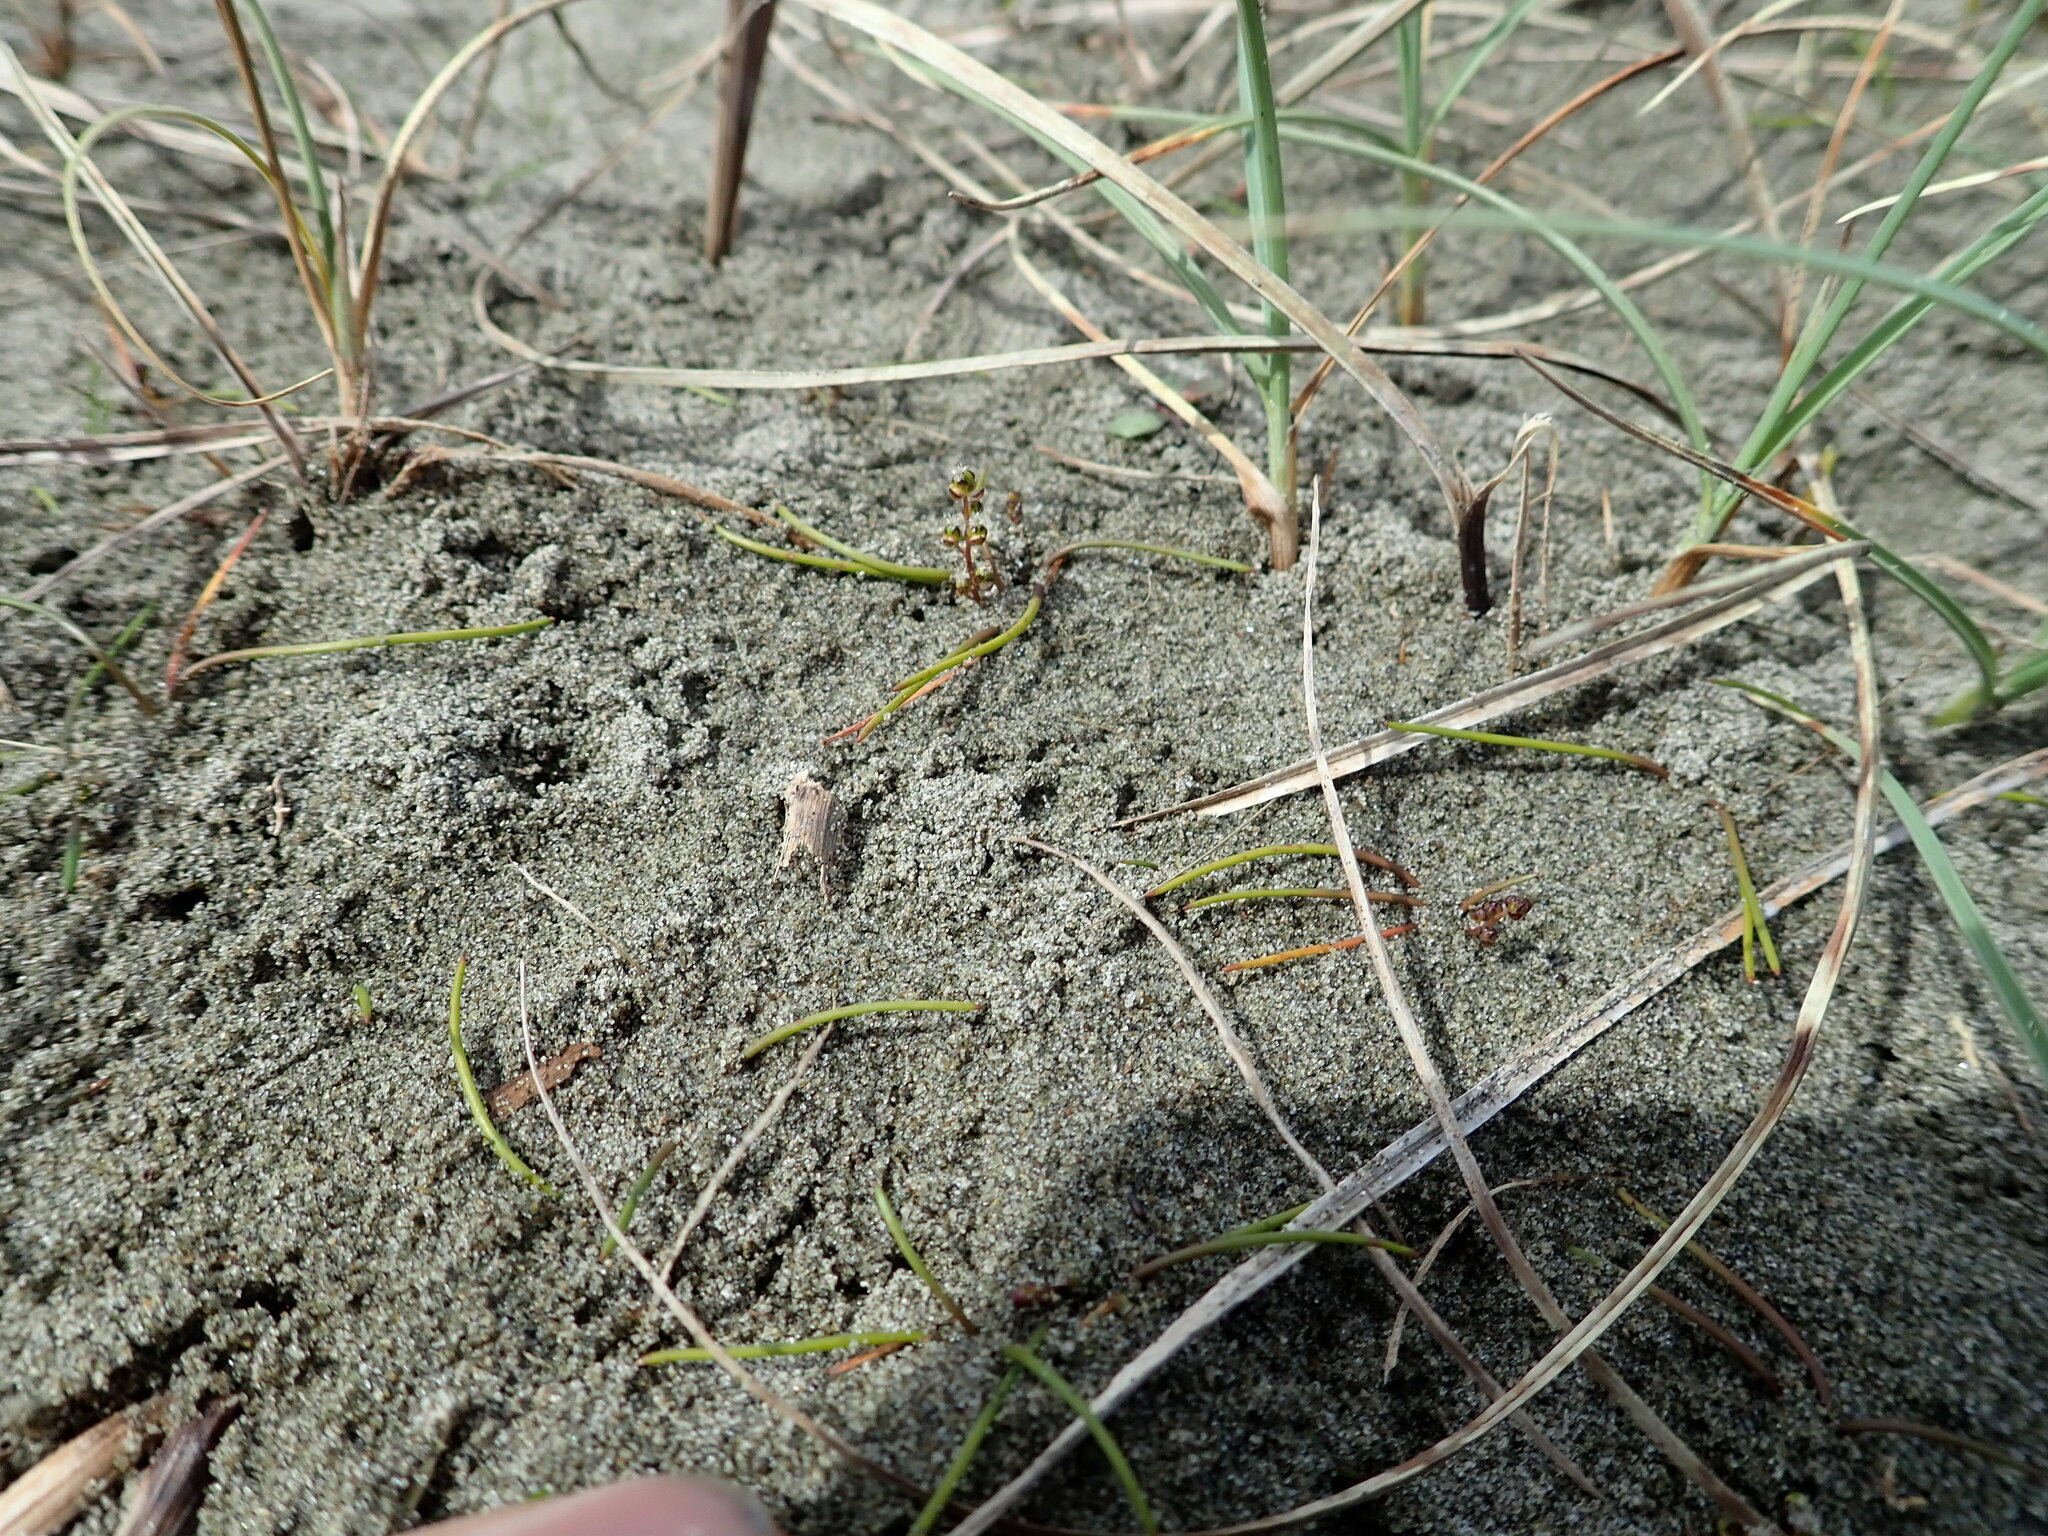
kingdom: Plantae
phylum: Tracheophyta
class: Liliopsida
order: Alismatales
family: Juncaginaceae
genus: Triglochin
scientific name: Triglochin striata
